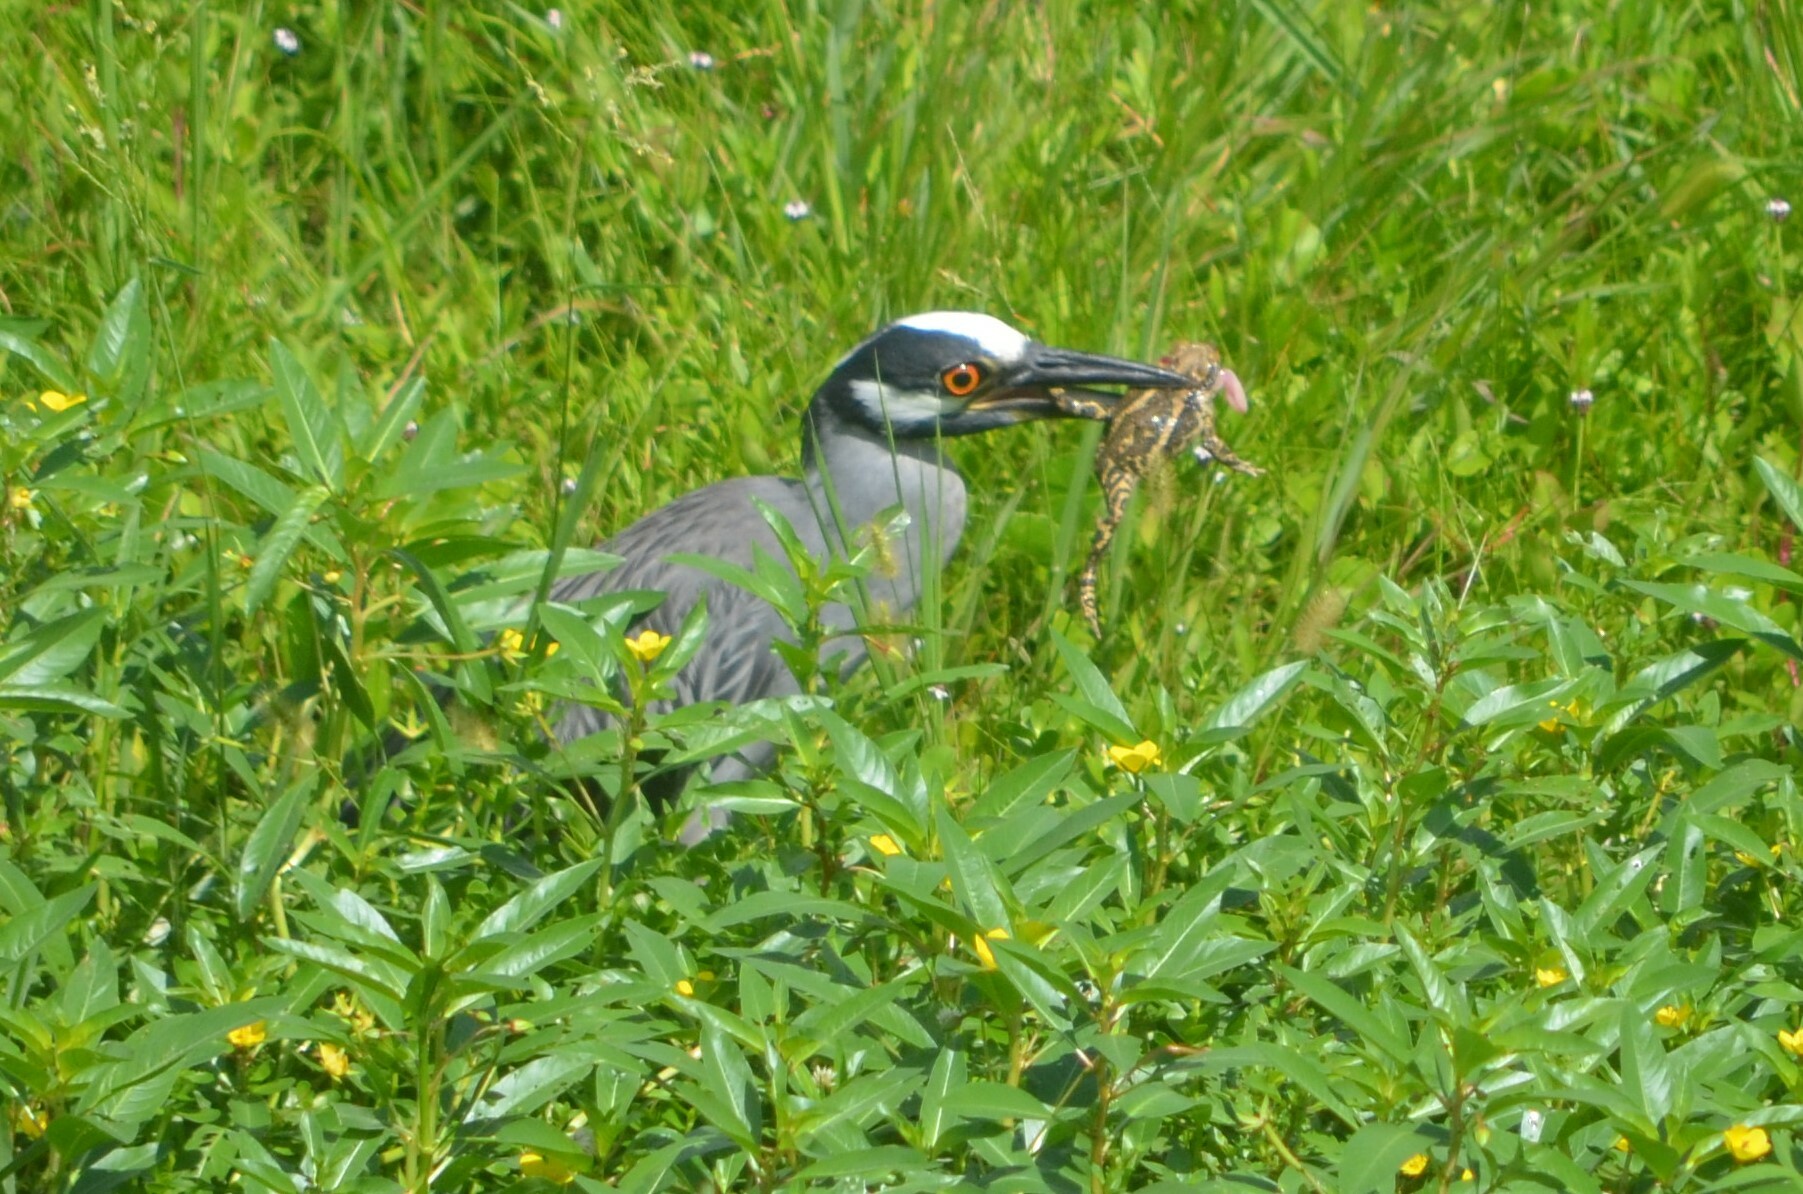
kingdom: Animalia
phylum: Chordata
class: Aves
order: Pelecaniformes
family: Ardeidae
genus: Nyctanassa
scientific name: Nyctanassa violacea
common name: Yellow-crowned night heron
